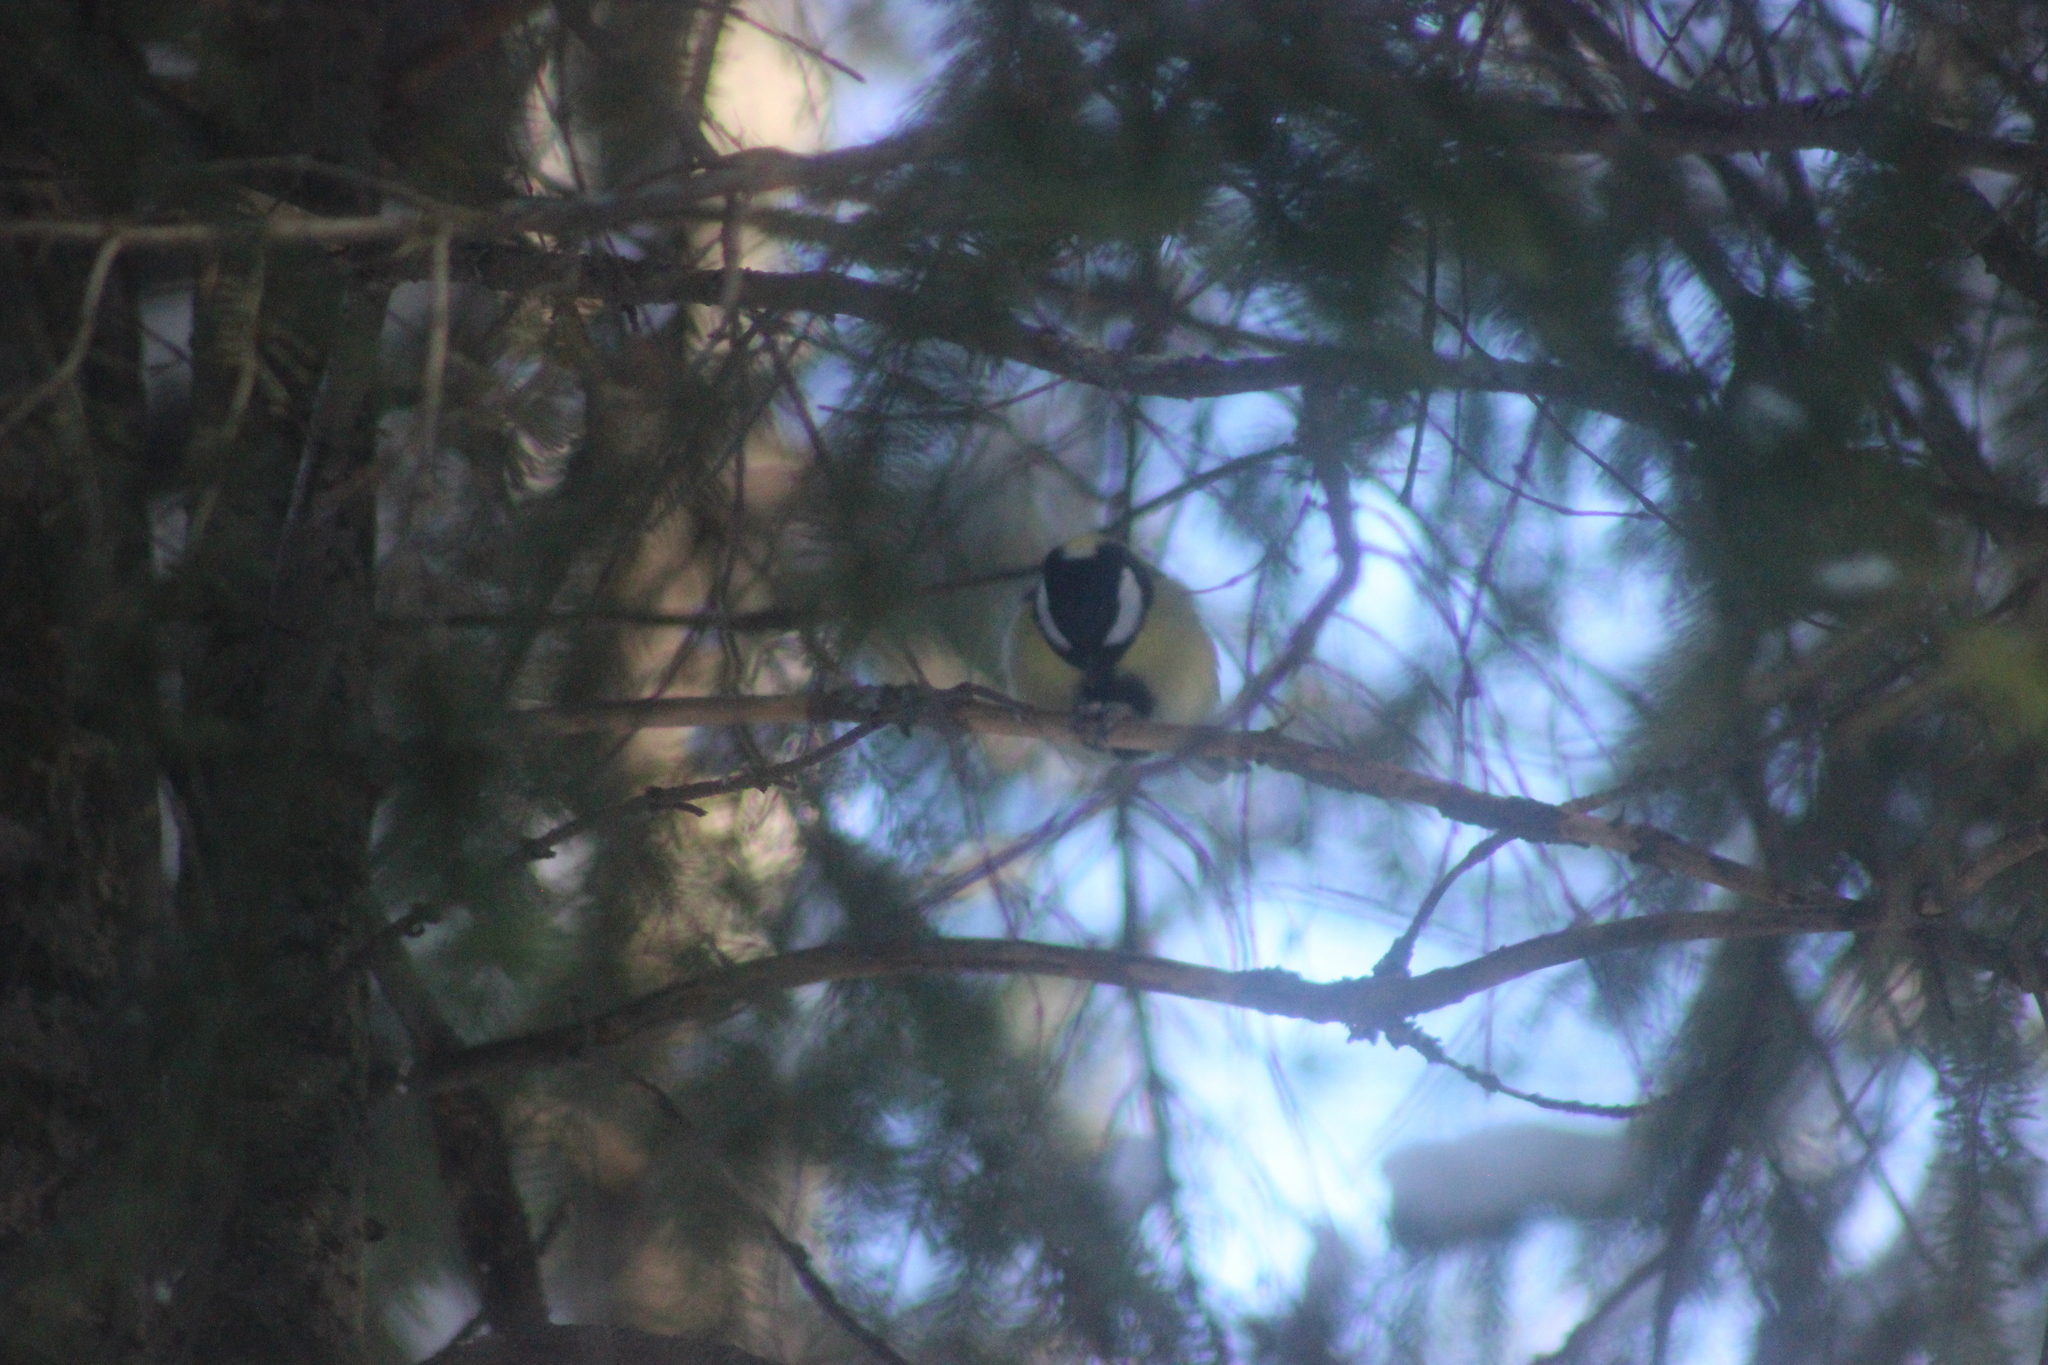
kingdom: Animalia
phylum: Chordata
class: Aves
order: Passeriformes
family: Paridae
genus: Parus
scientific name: Parus major
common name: Great tit
